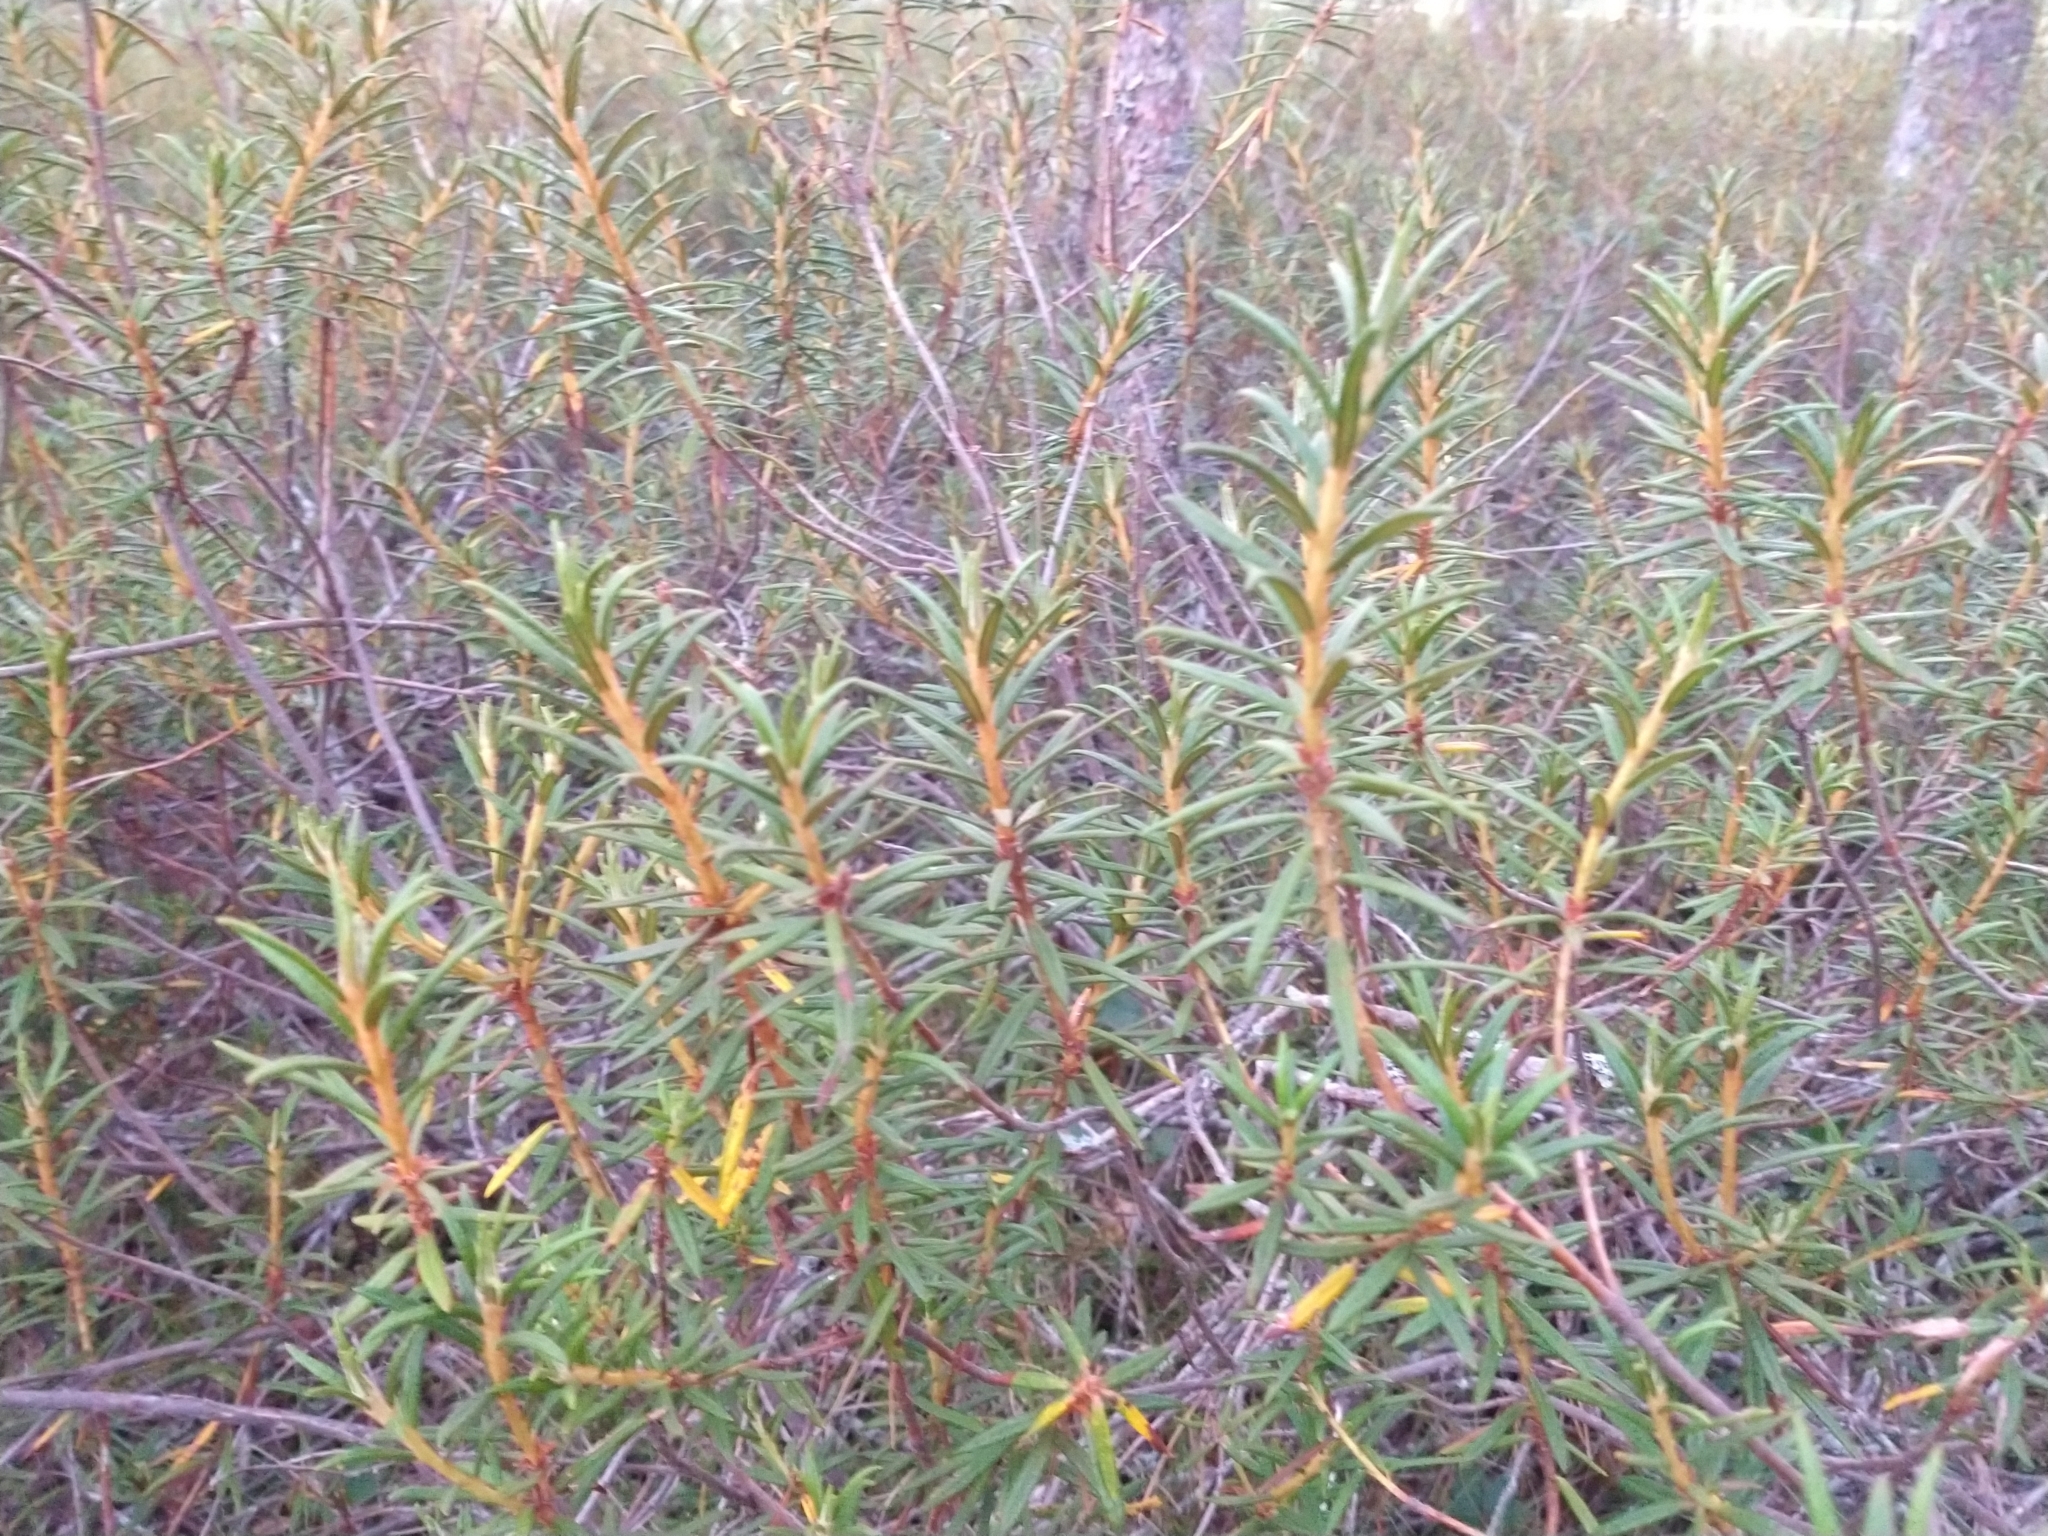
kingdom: Plantae
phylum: Tracheophyta
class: Magnoliopsida
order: Ericales
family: Ericaceae
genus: Rhododendron
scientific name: Rhododendron tomentosum
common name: Marsh labrador tea
